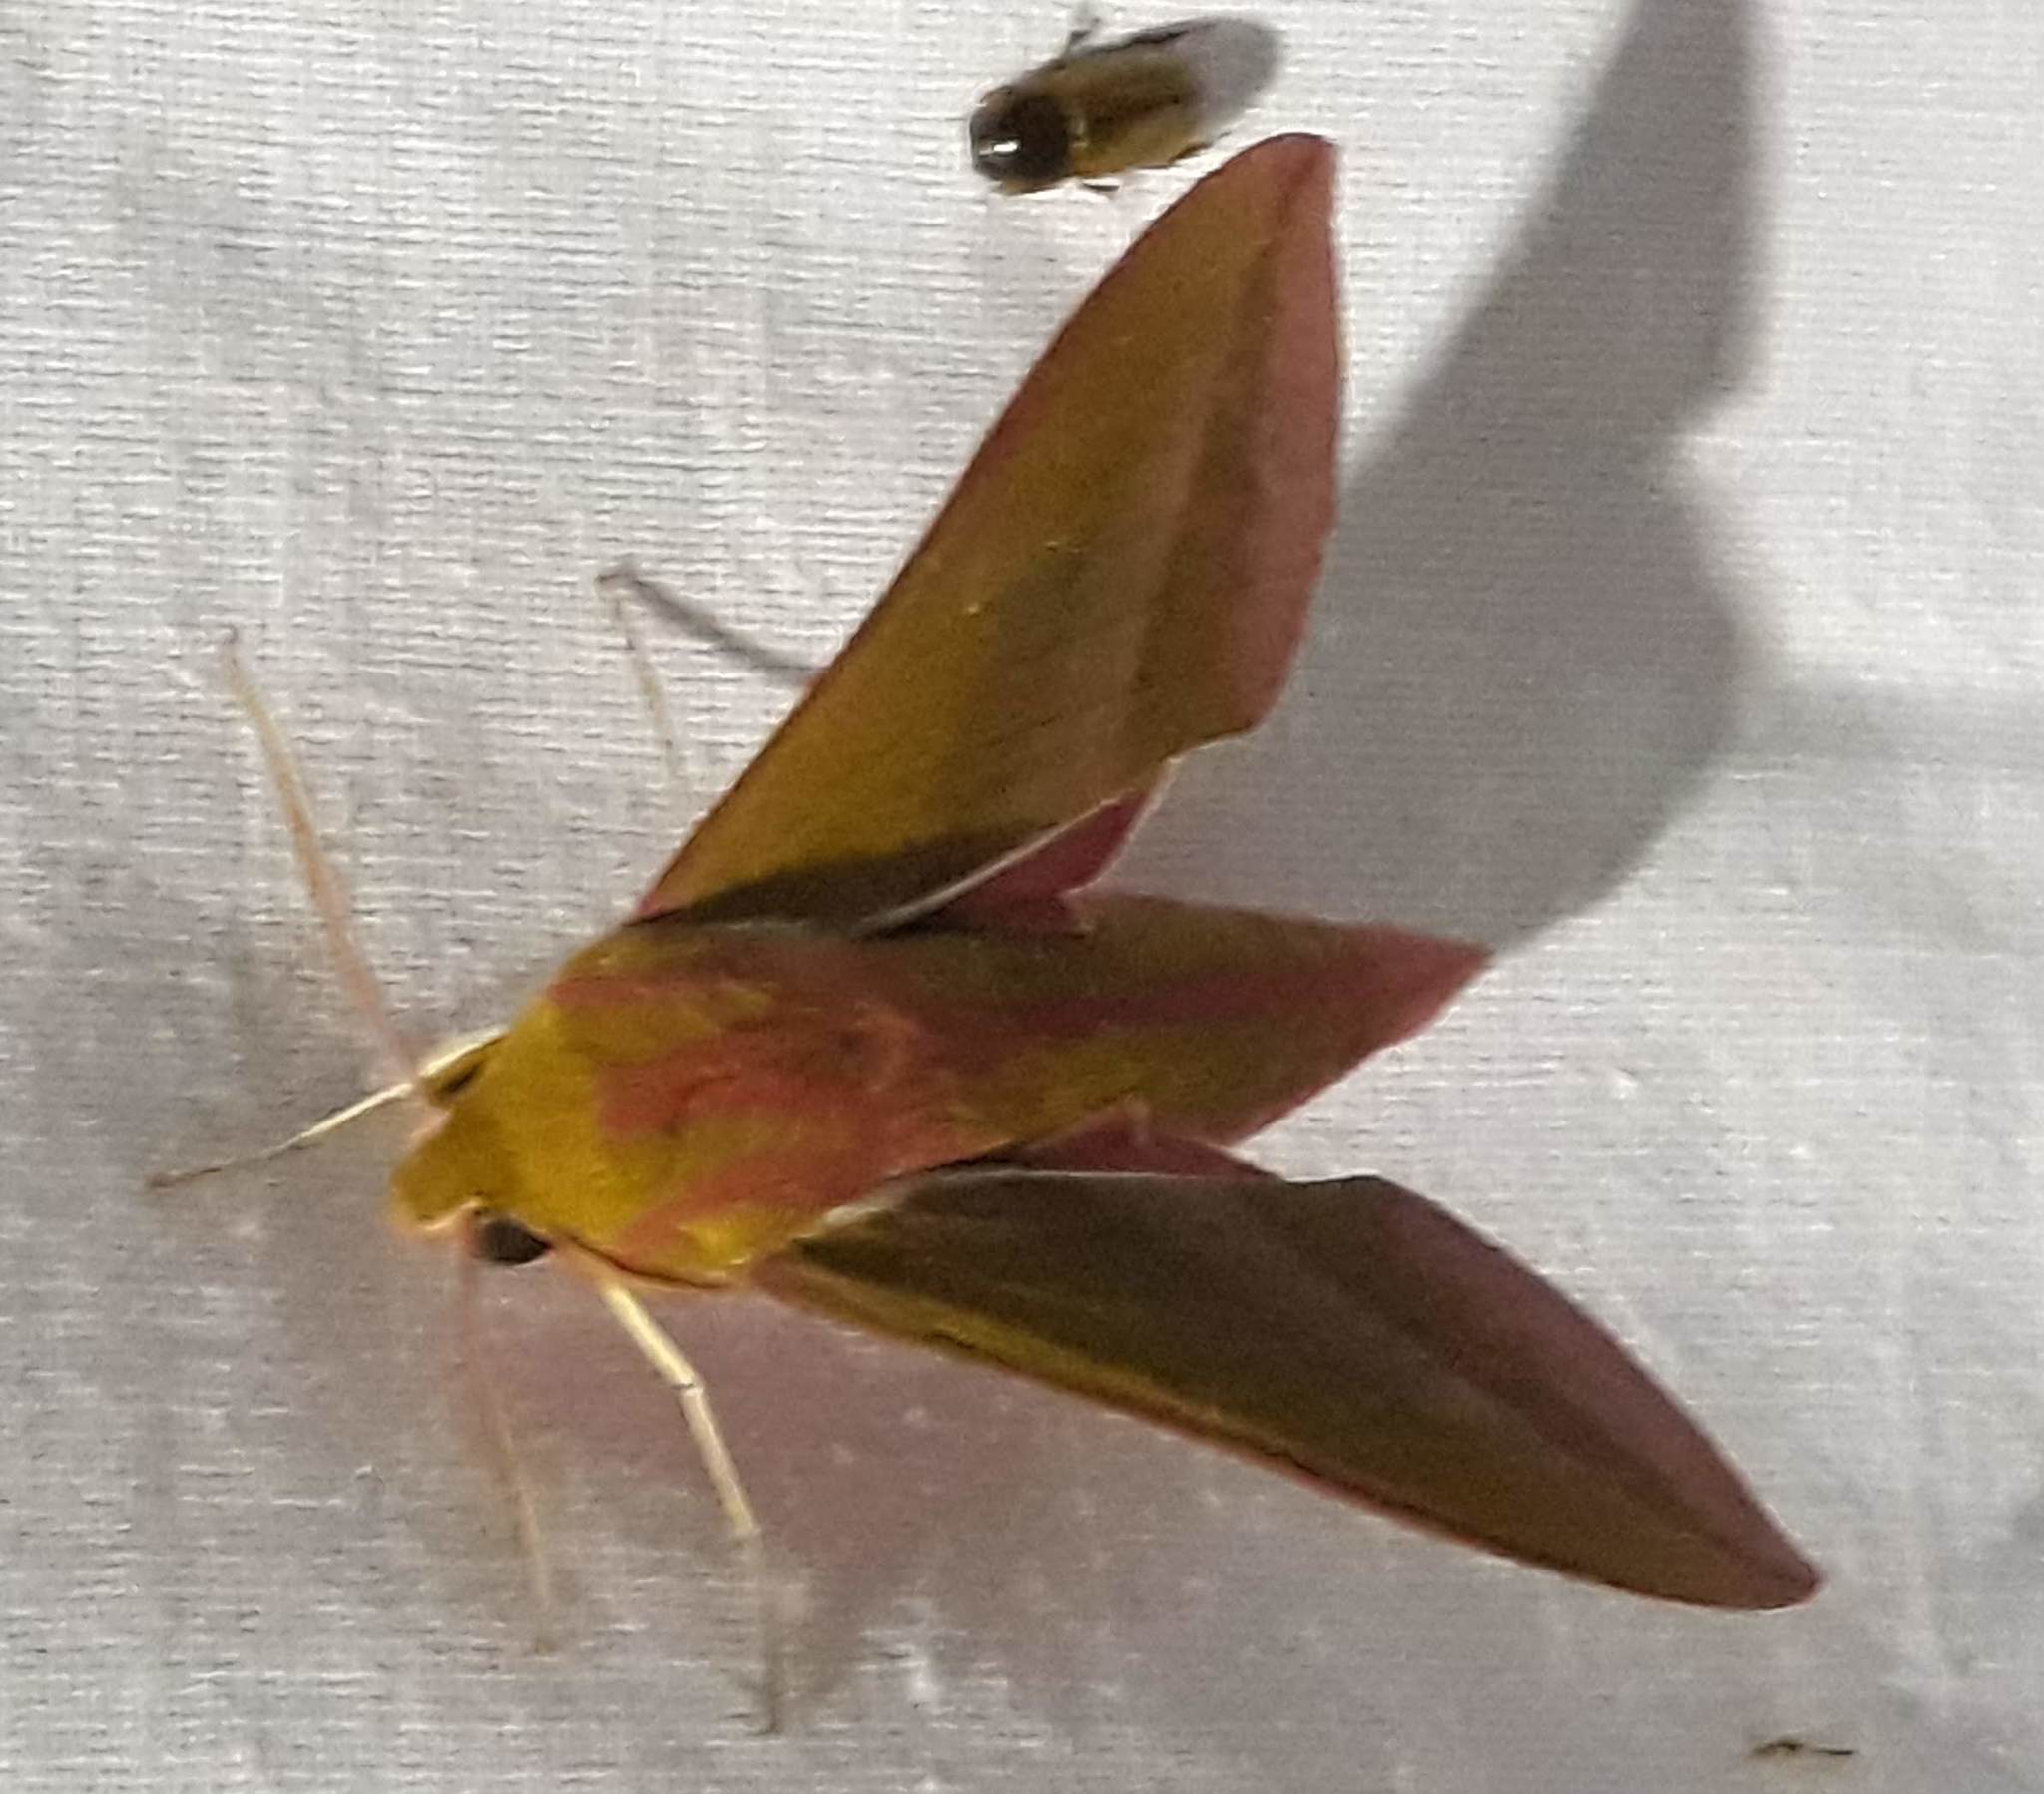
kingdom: Animalia
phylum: Arthropoda
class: Insecta
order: Lepidoptera
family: Sphingidae
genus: Deilephila
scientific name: Deilephila elpenor
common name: Elephant hawk-moth
